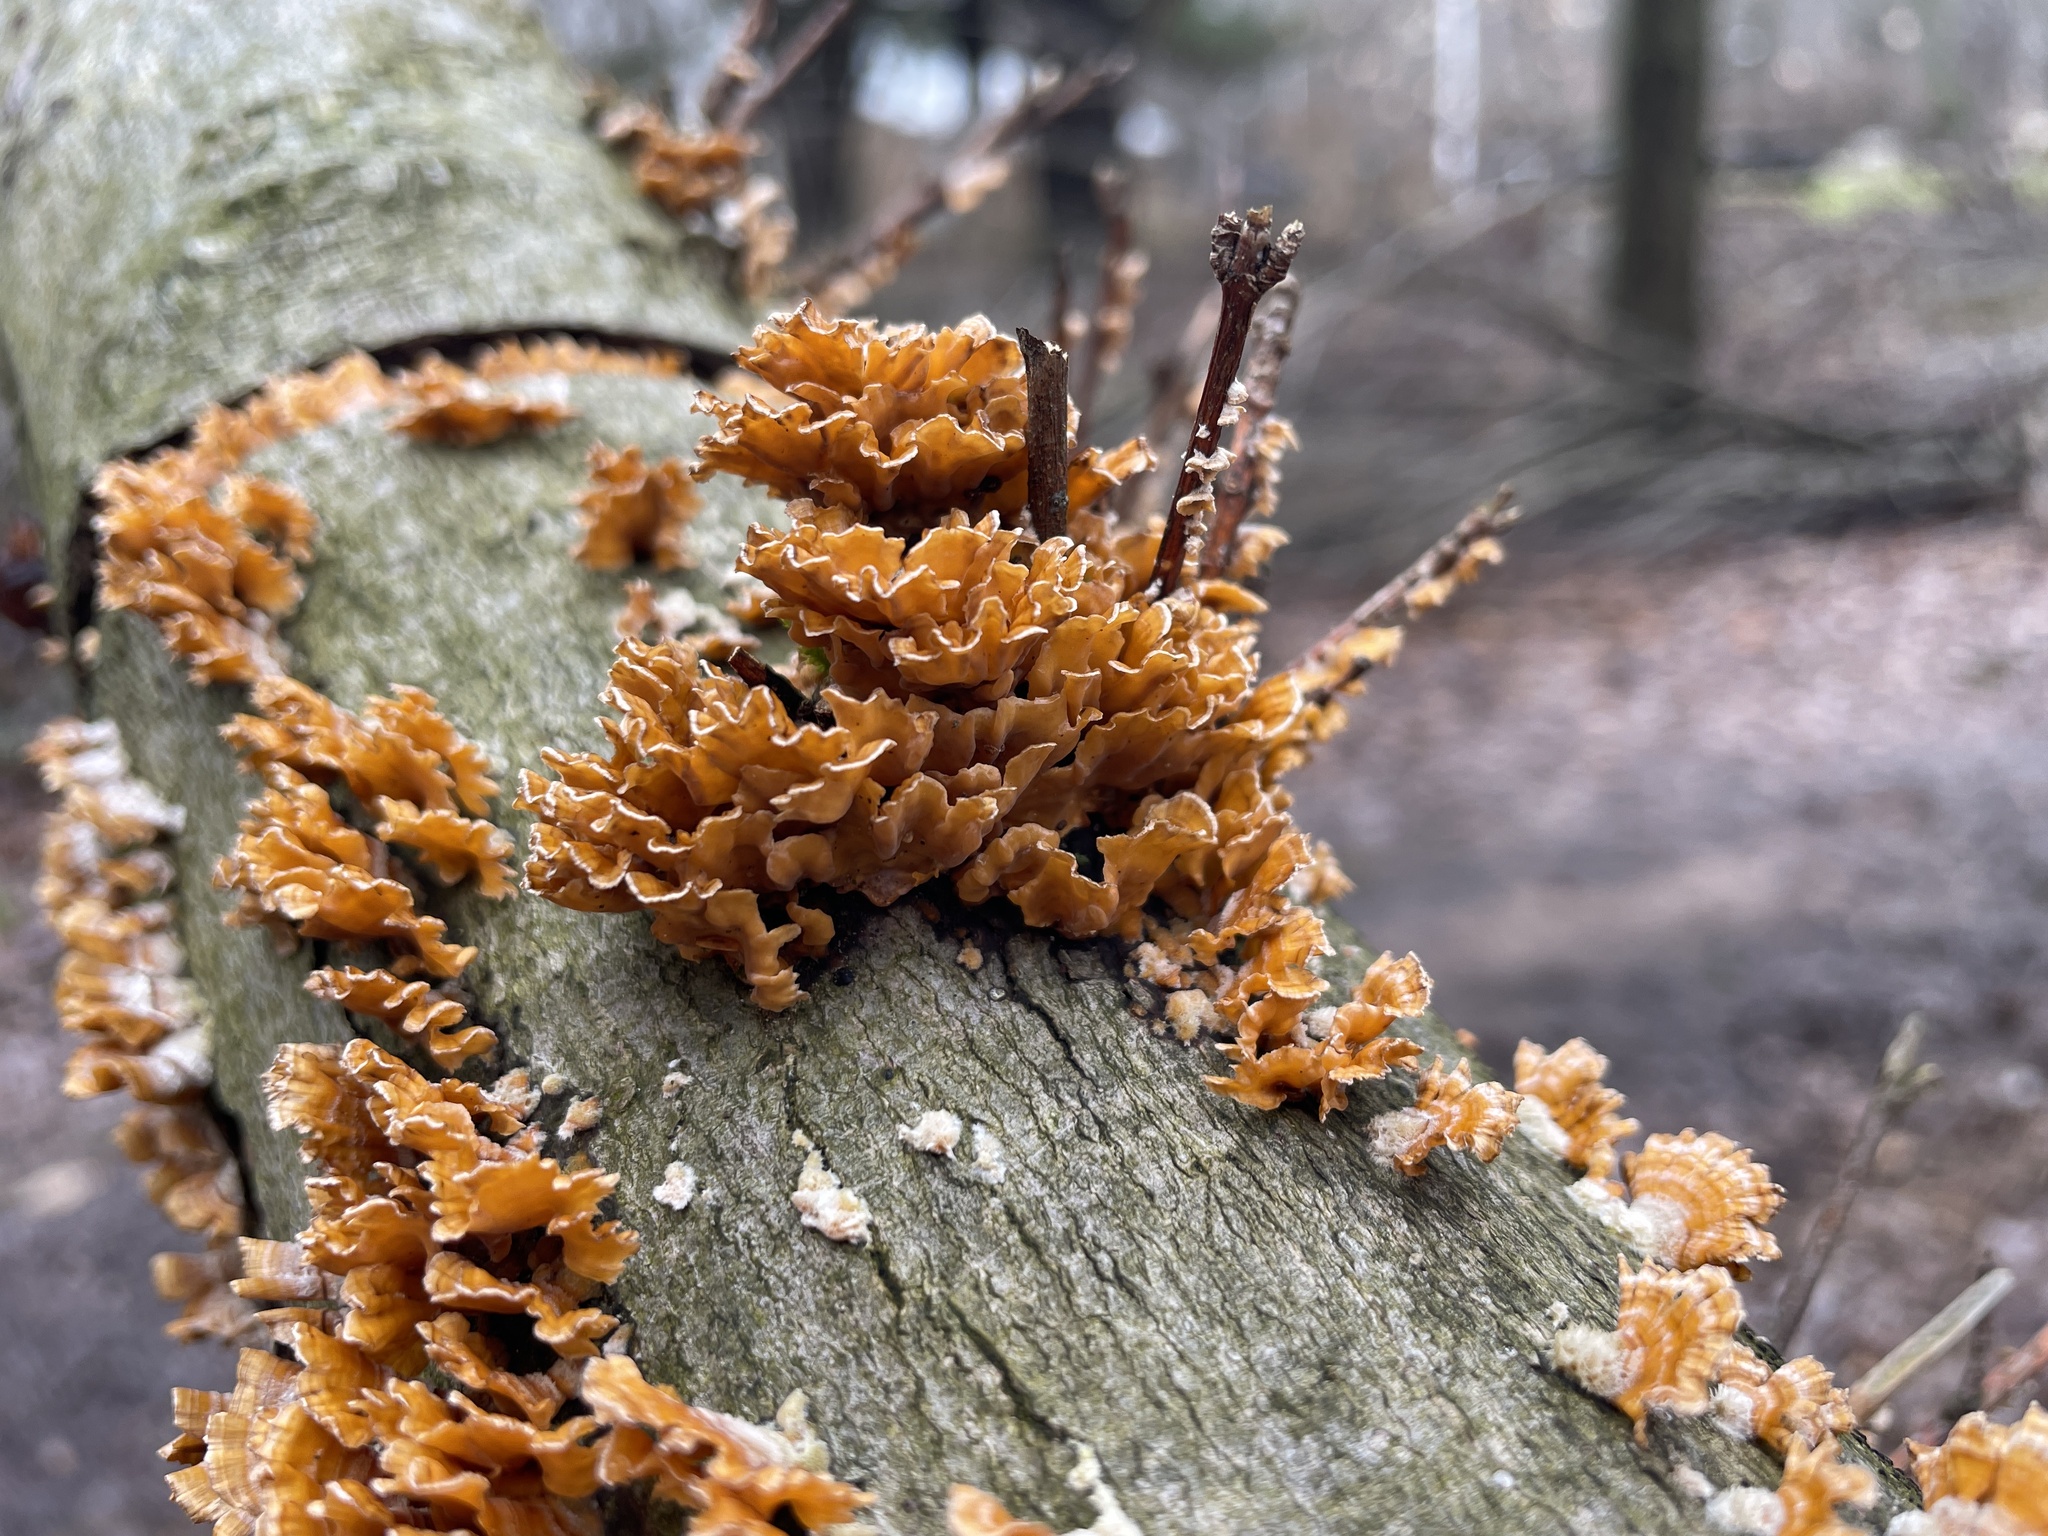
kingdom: Fungi
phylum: Basidiomycota
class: Agaricomycetes
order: Russulales
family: Stereaceae
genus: Stereum
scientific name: Stereum complicatum
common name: Crowded parchment
